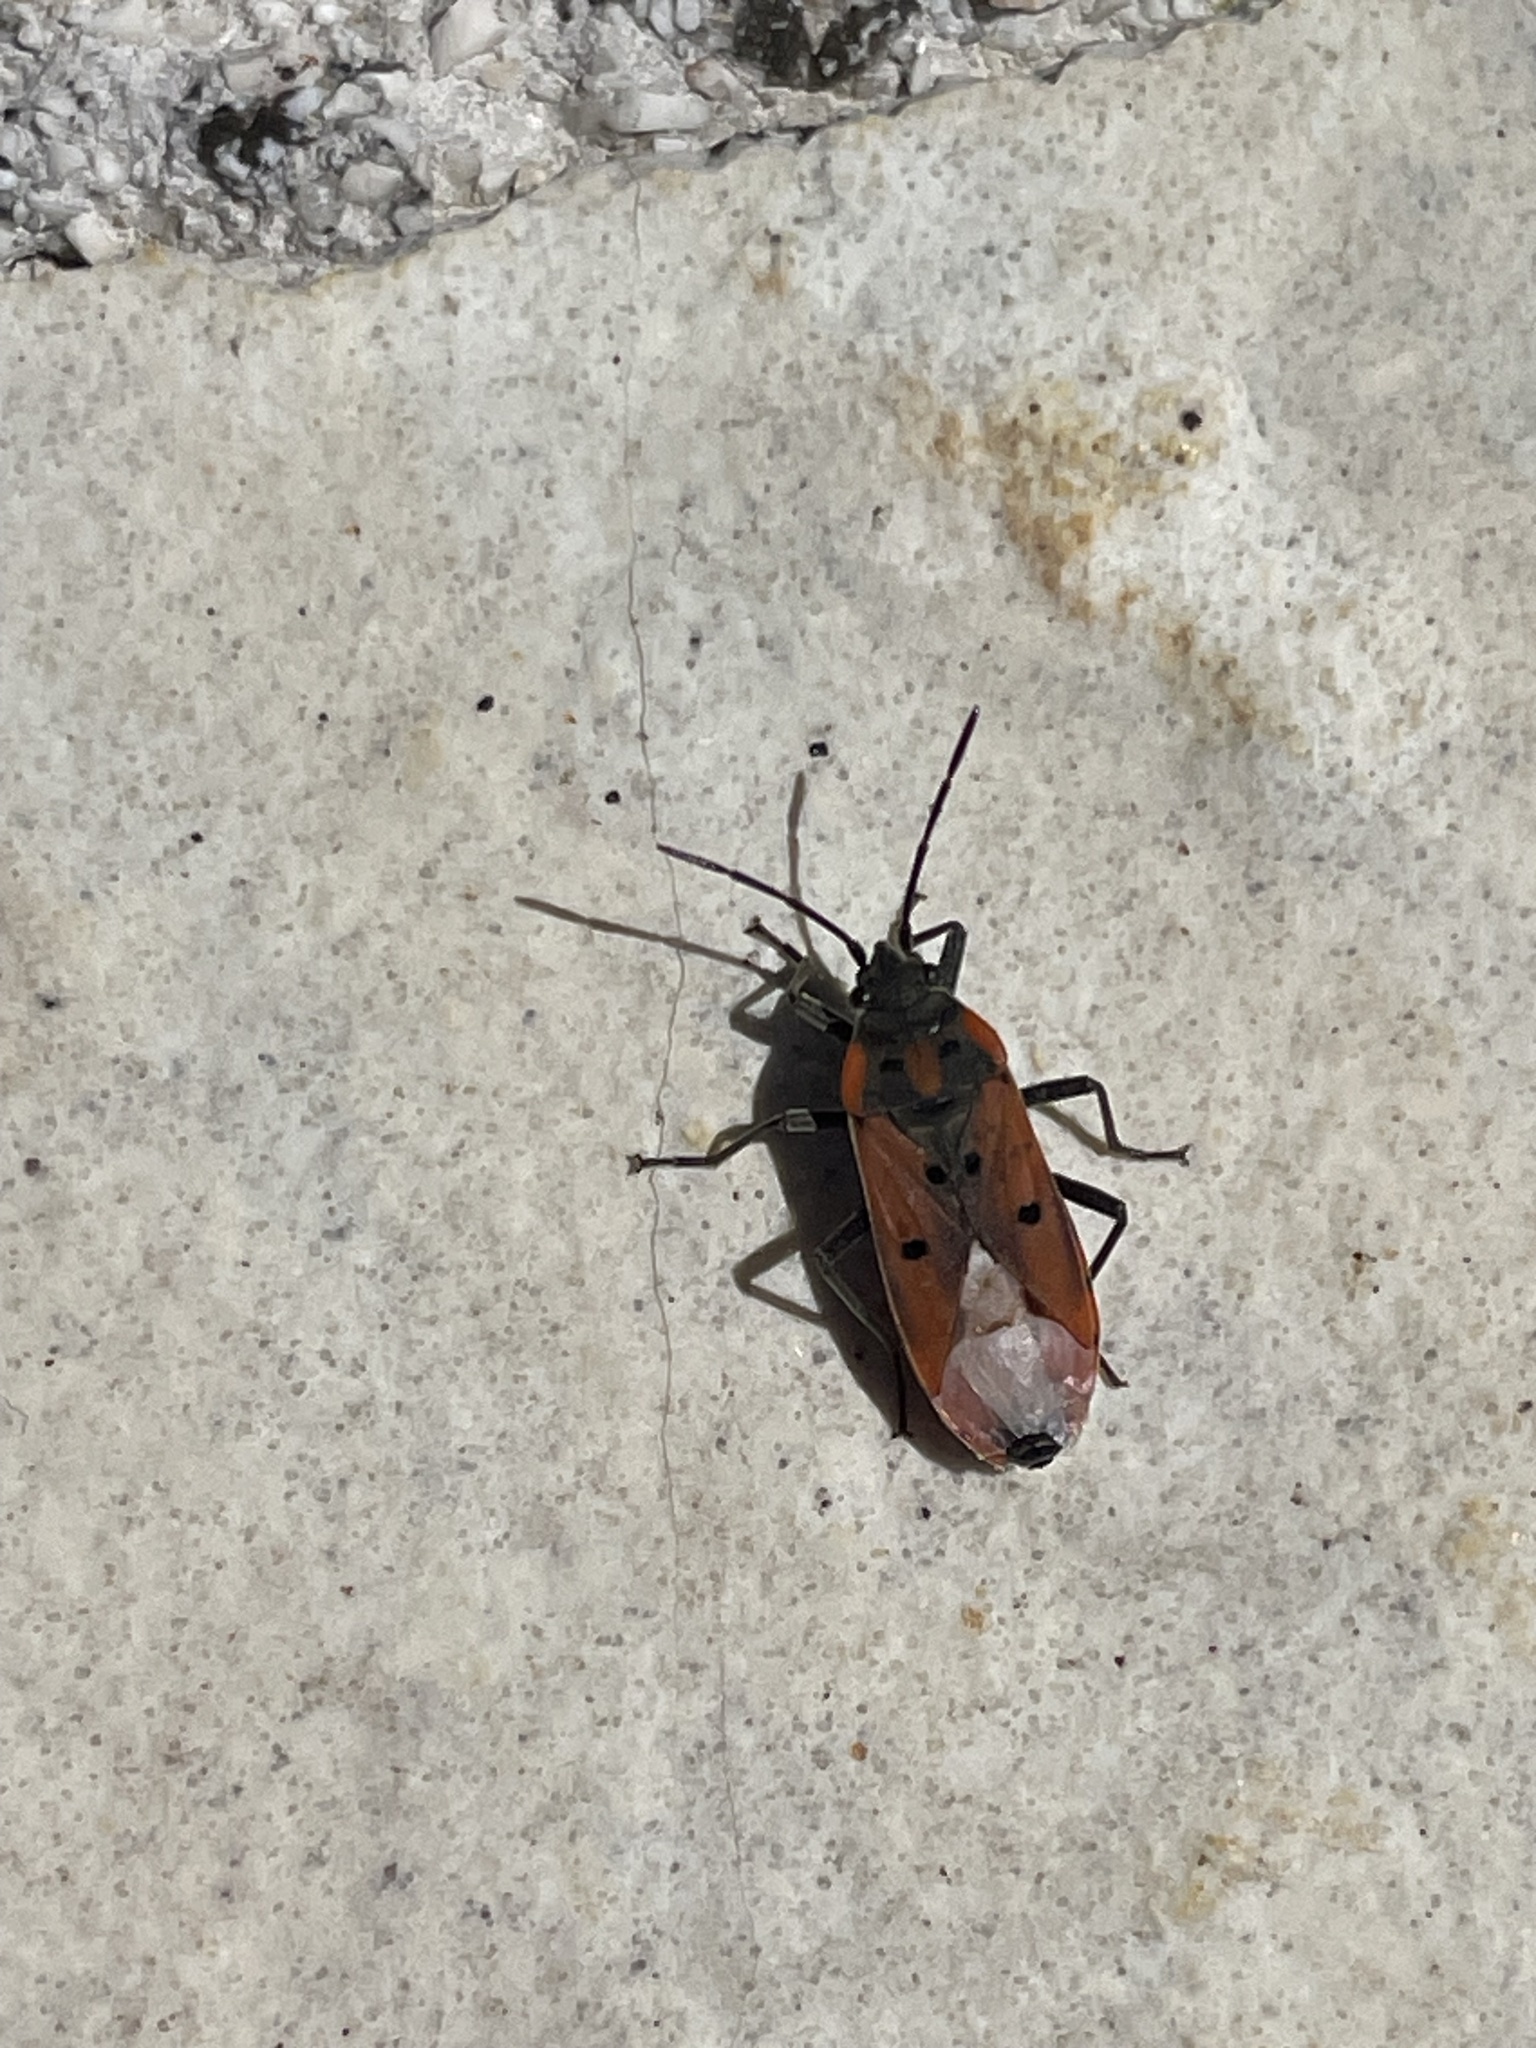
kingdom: Animalia
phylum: Arthropoda
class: Insecta
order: Hemiptera
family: Lygaeidae
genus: Lygaeus
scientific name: Lygaeus creticus
